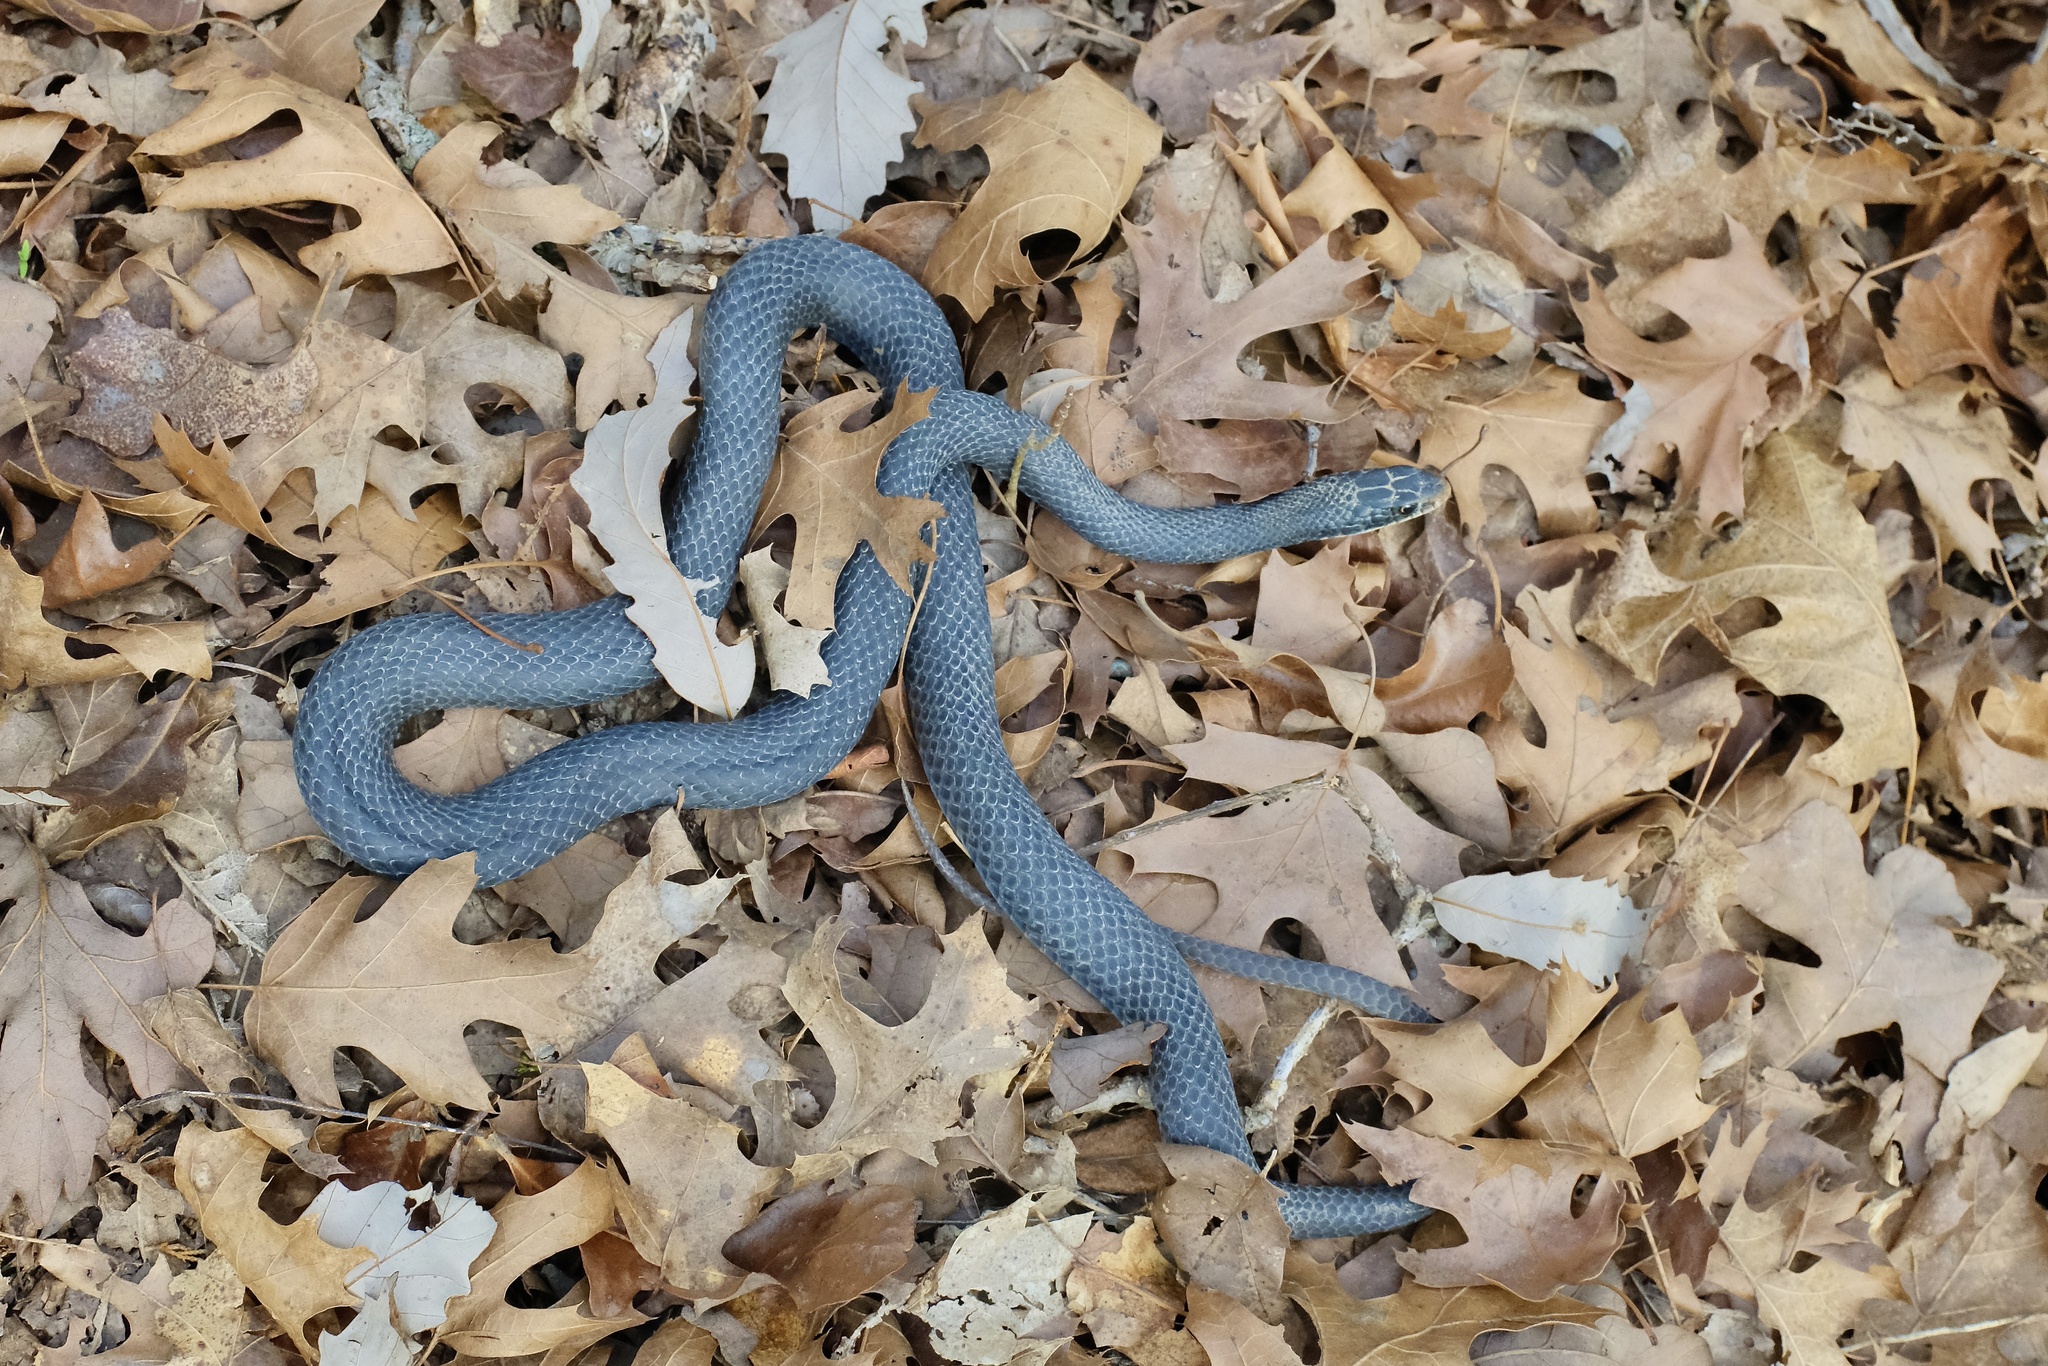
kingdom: Animalia
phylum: Chordata
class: Squamata
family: Colubridae
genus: Coluber
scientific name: Coluber constrictor
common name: Eastern racer
